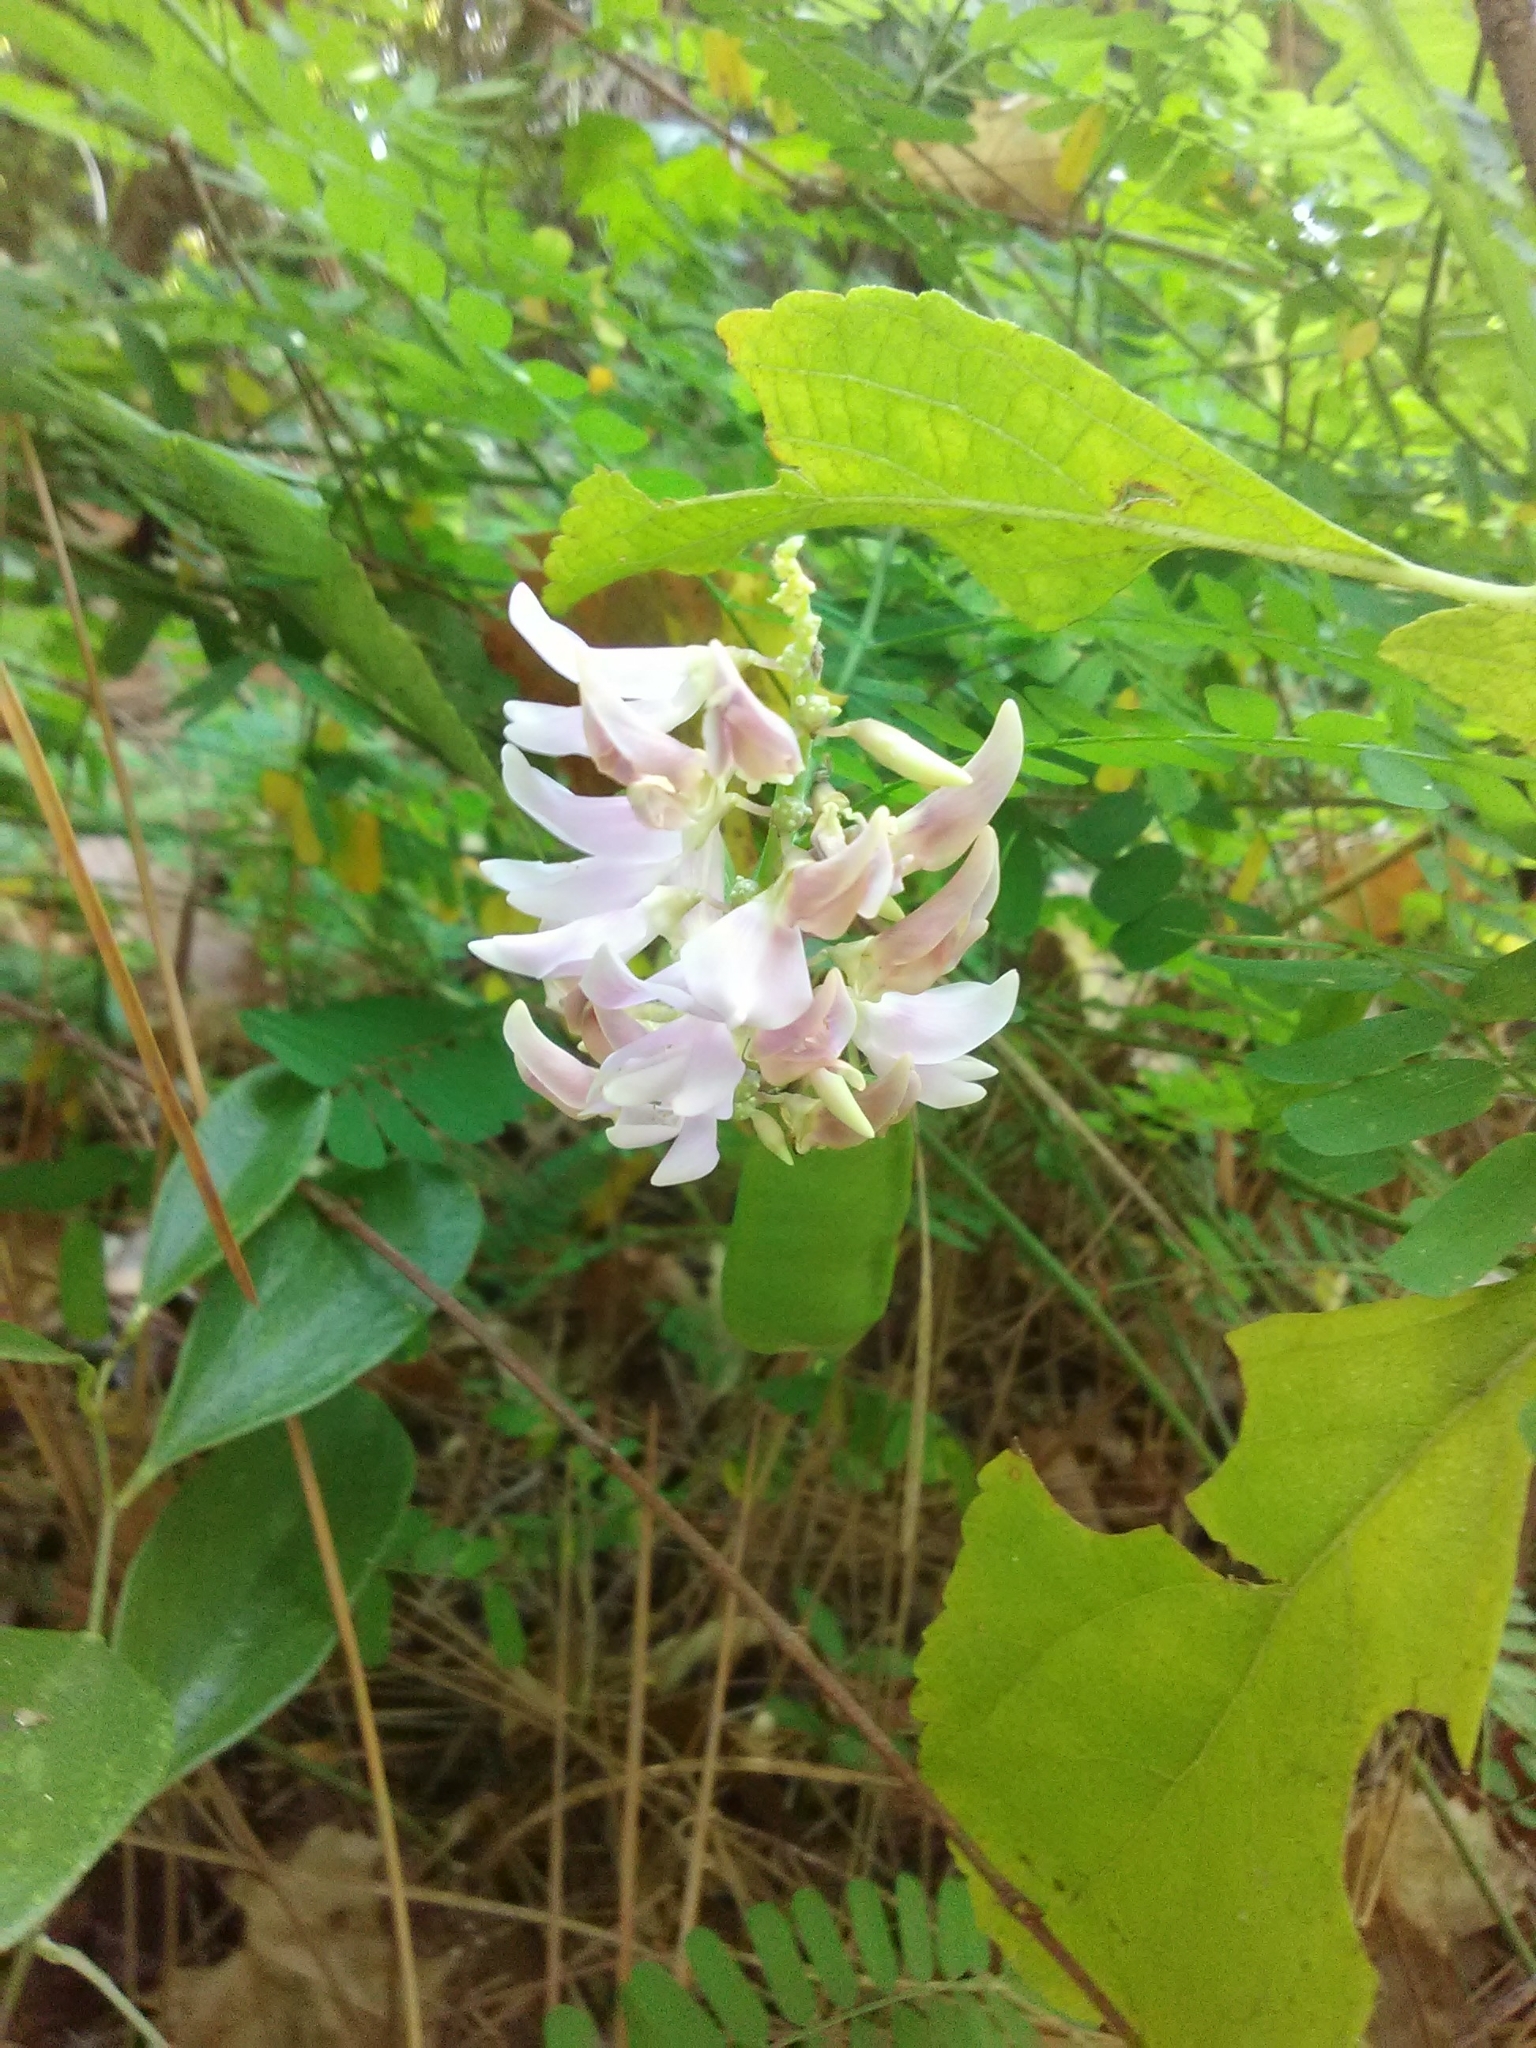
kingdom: Plantae
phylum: Tracheophyta
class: Magnoliopsida
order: Fabales
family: Fabaceae
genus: Abrus
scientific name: Abrus precatorius
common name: Rosarypea
